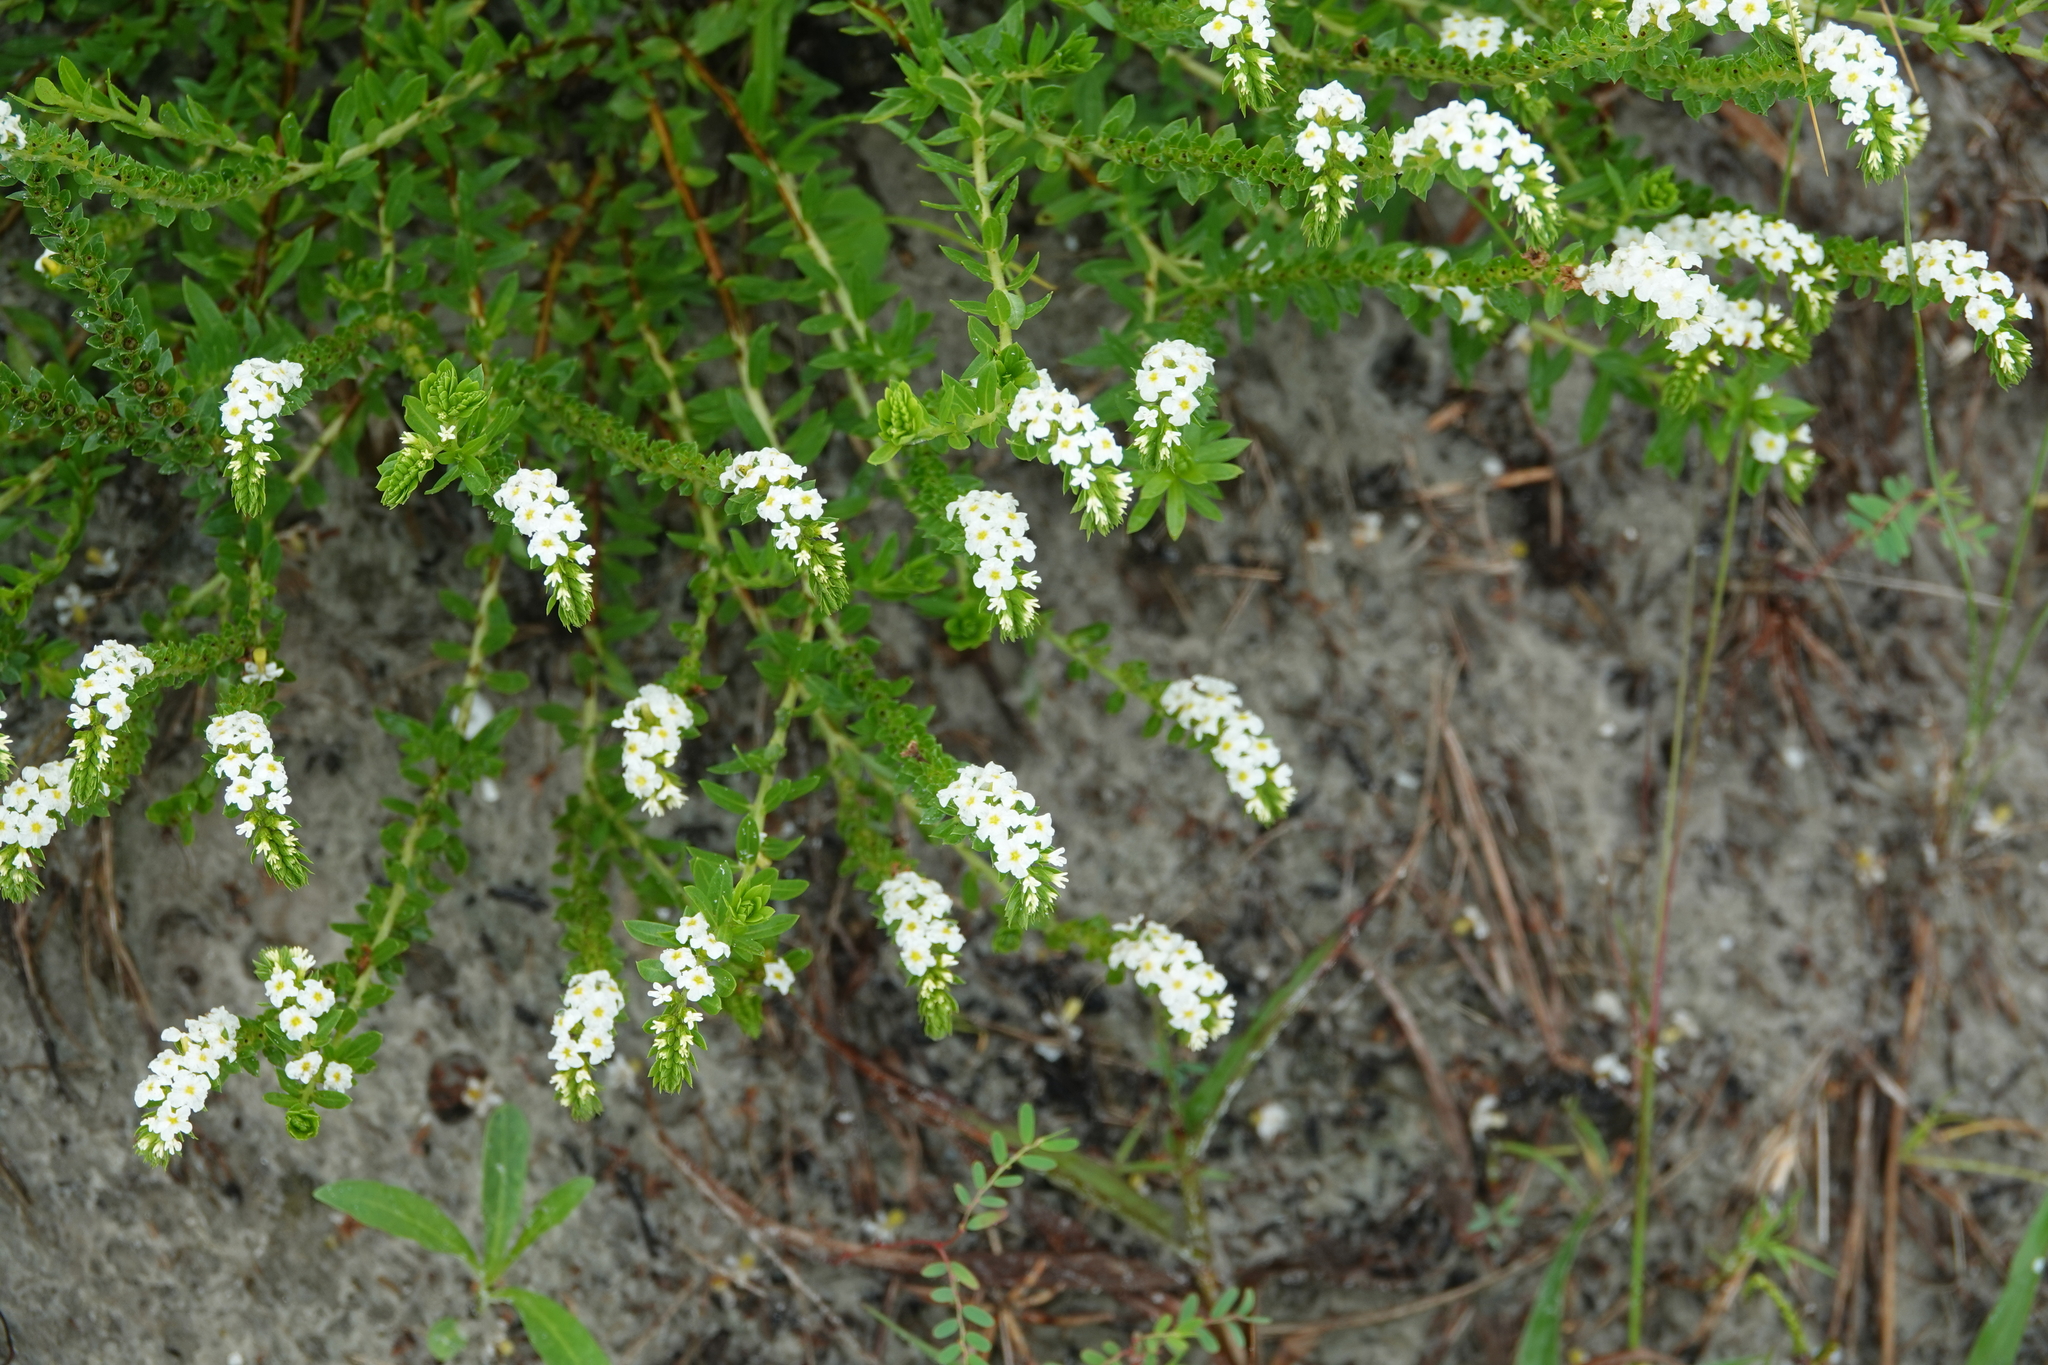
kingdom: Plantae
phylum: Tracheophyta
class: Magnoliopsida
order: Boraginales
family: Heliotropiaceae
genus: Euploca
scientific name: Euploca polyphylla
